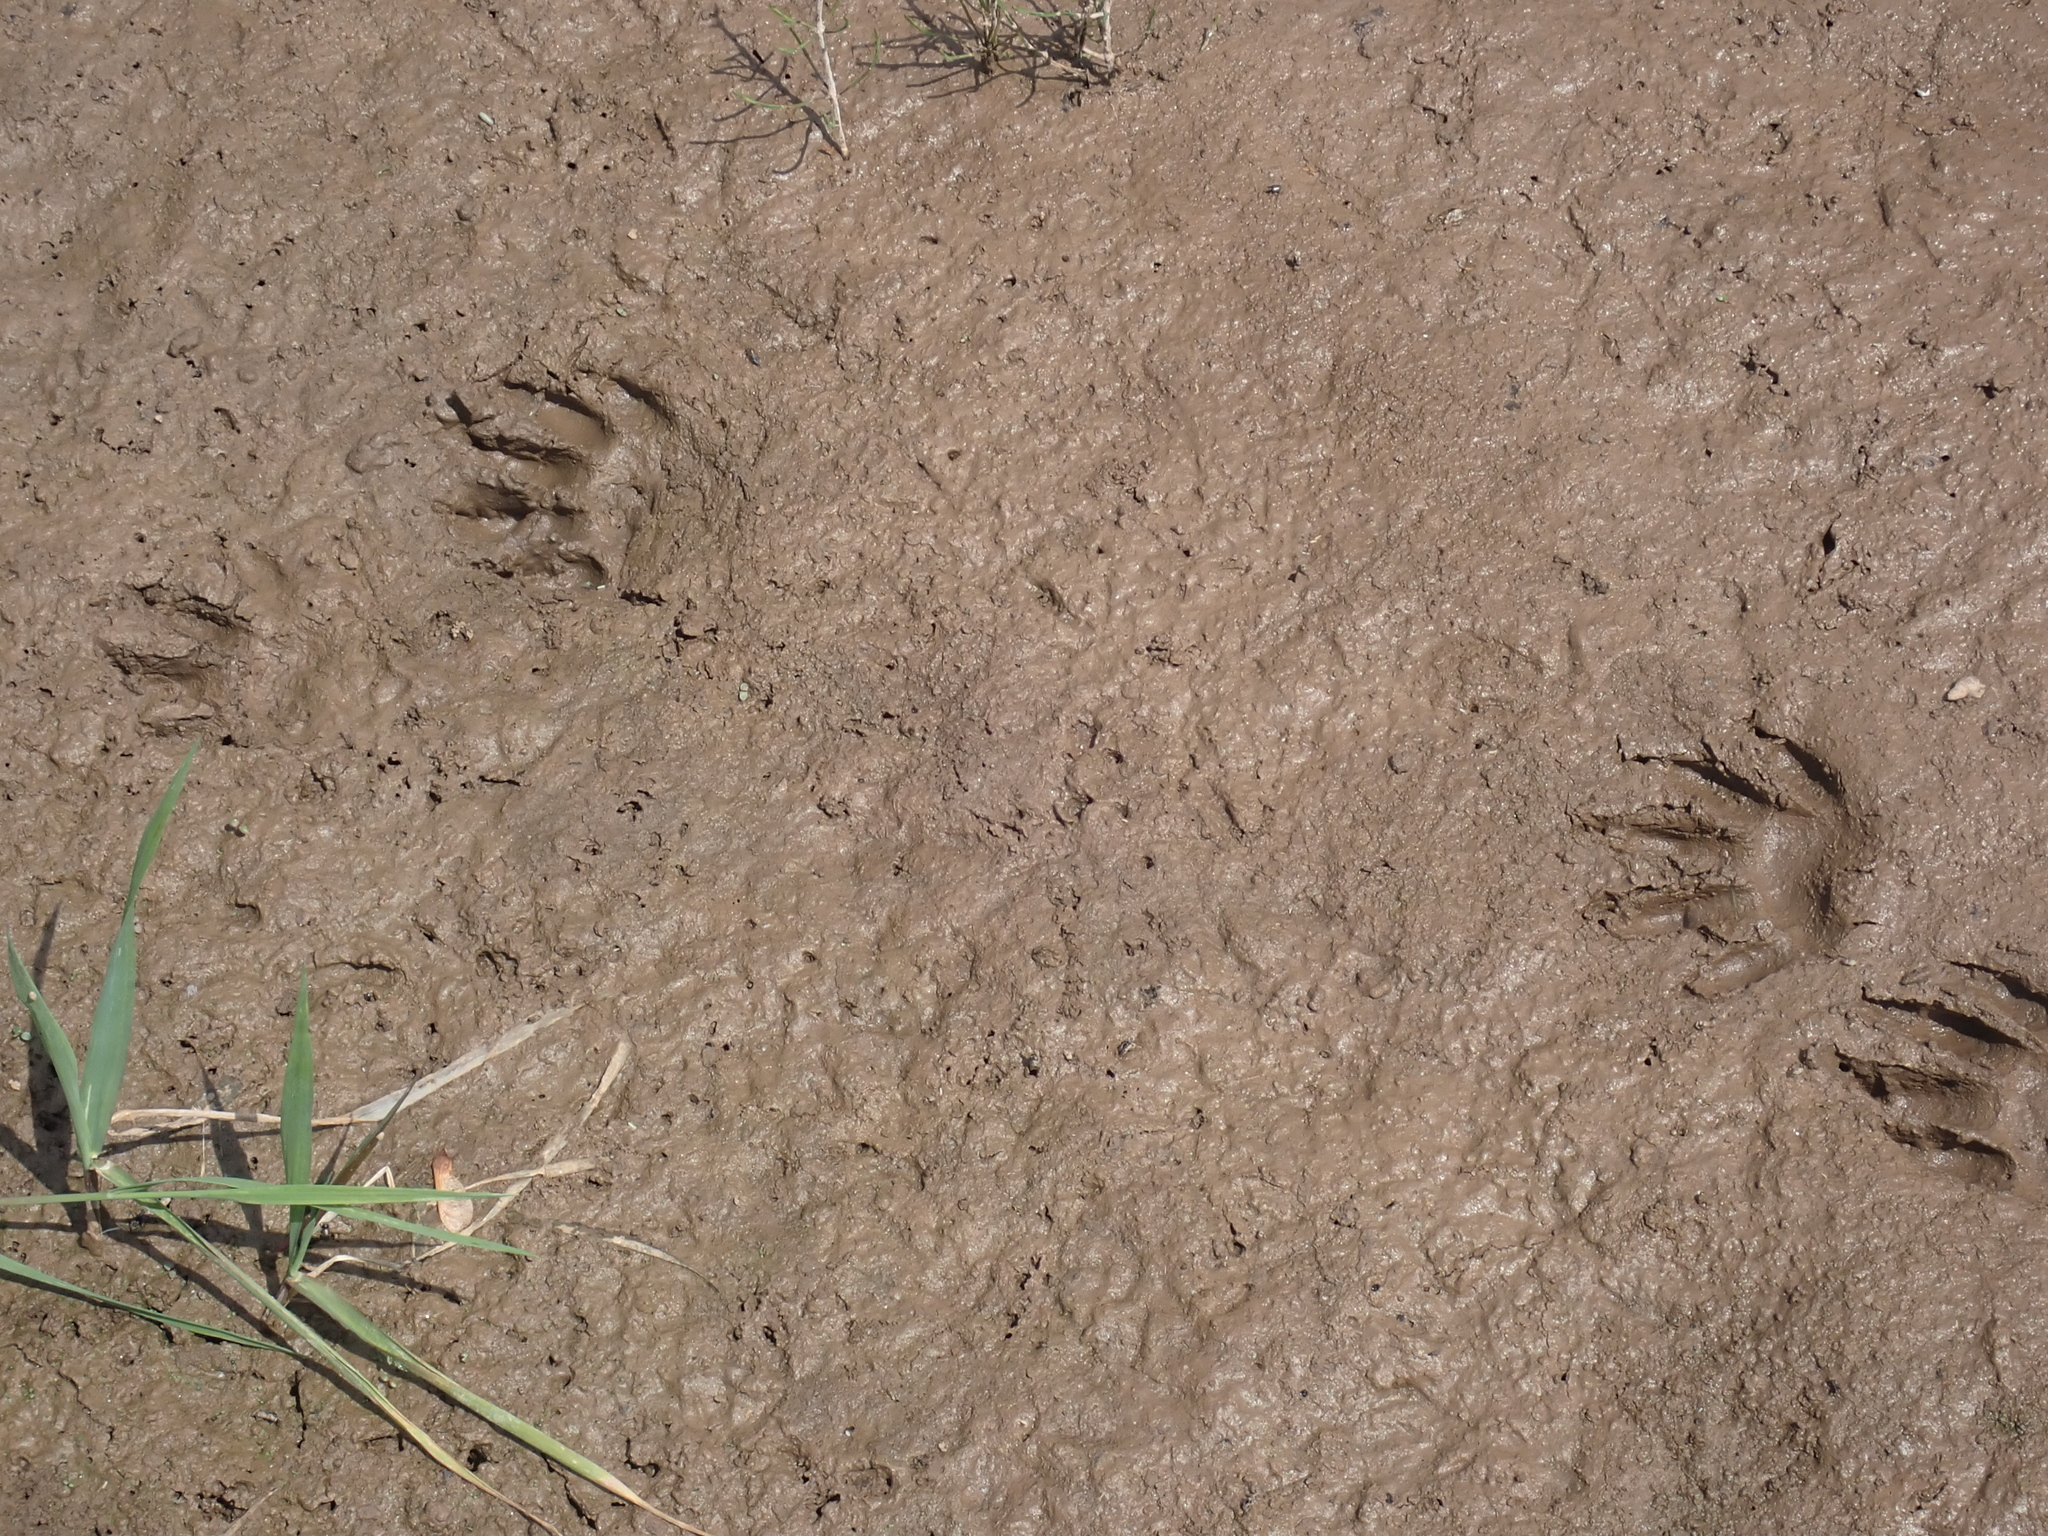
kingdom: Animalia
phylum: Chordata
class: Mammalia
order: Carnivora
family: Procyonidae
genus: Procyon
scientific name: Procyon lotor
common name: Raccoon
